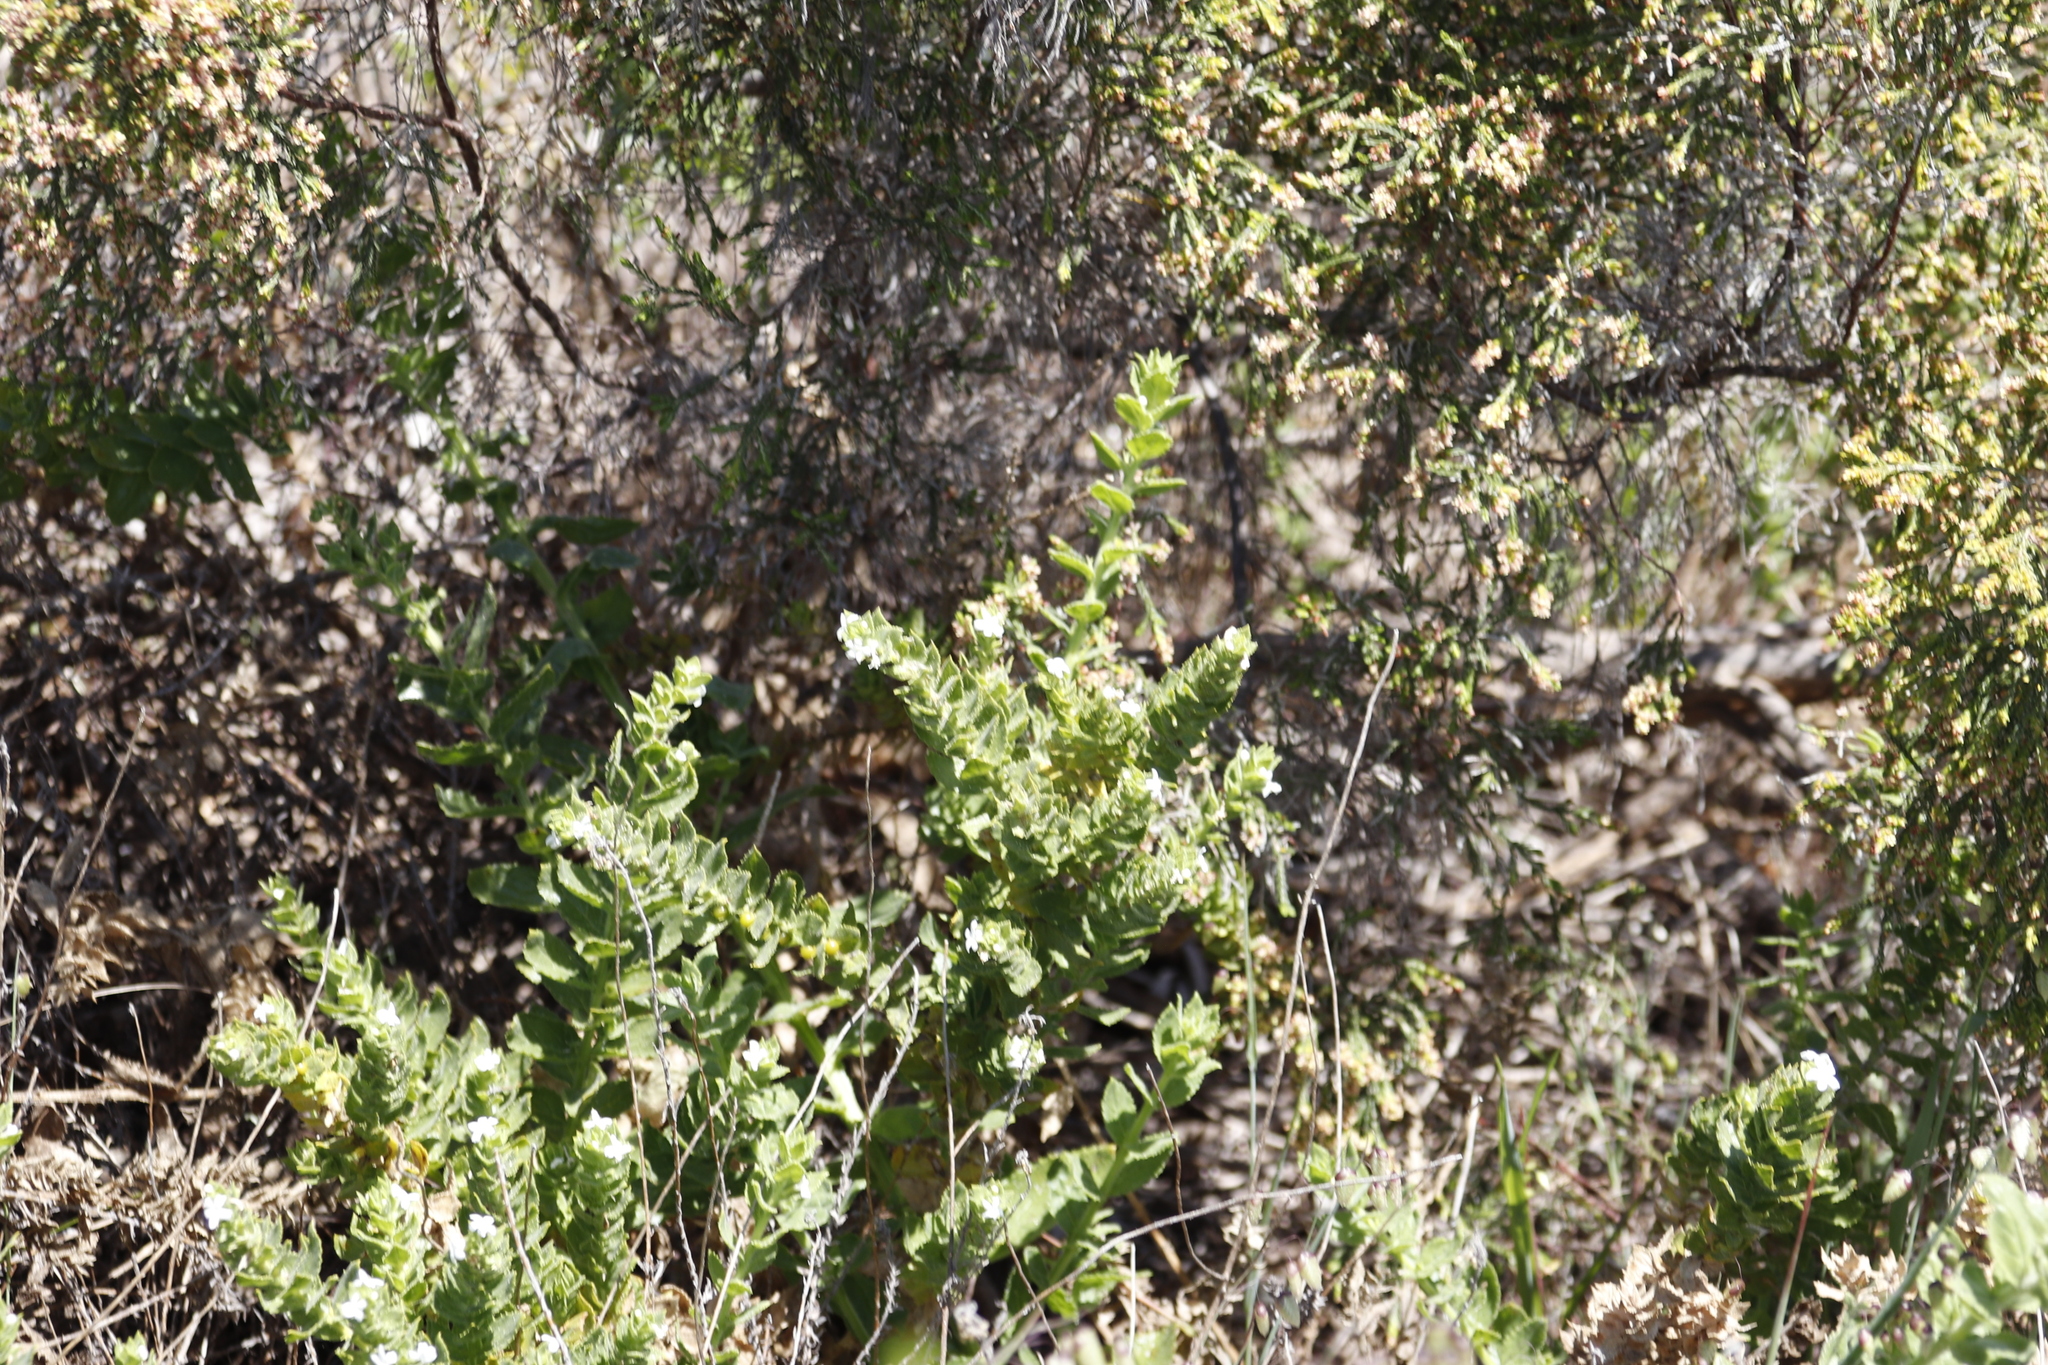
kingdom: Plantae
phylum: Tracheophyta
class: Magnoliopsida
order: Lamiales
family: Scrophulariaceae
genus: Oftia
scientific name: Oftia africana
